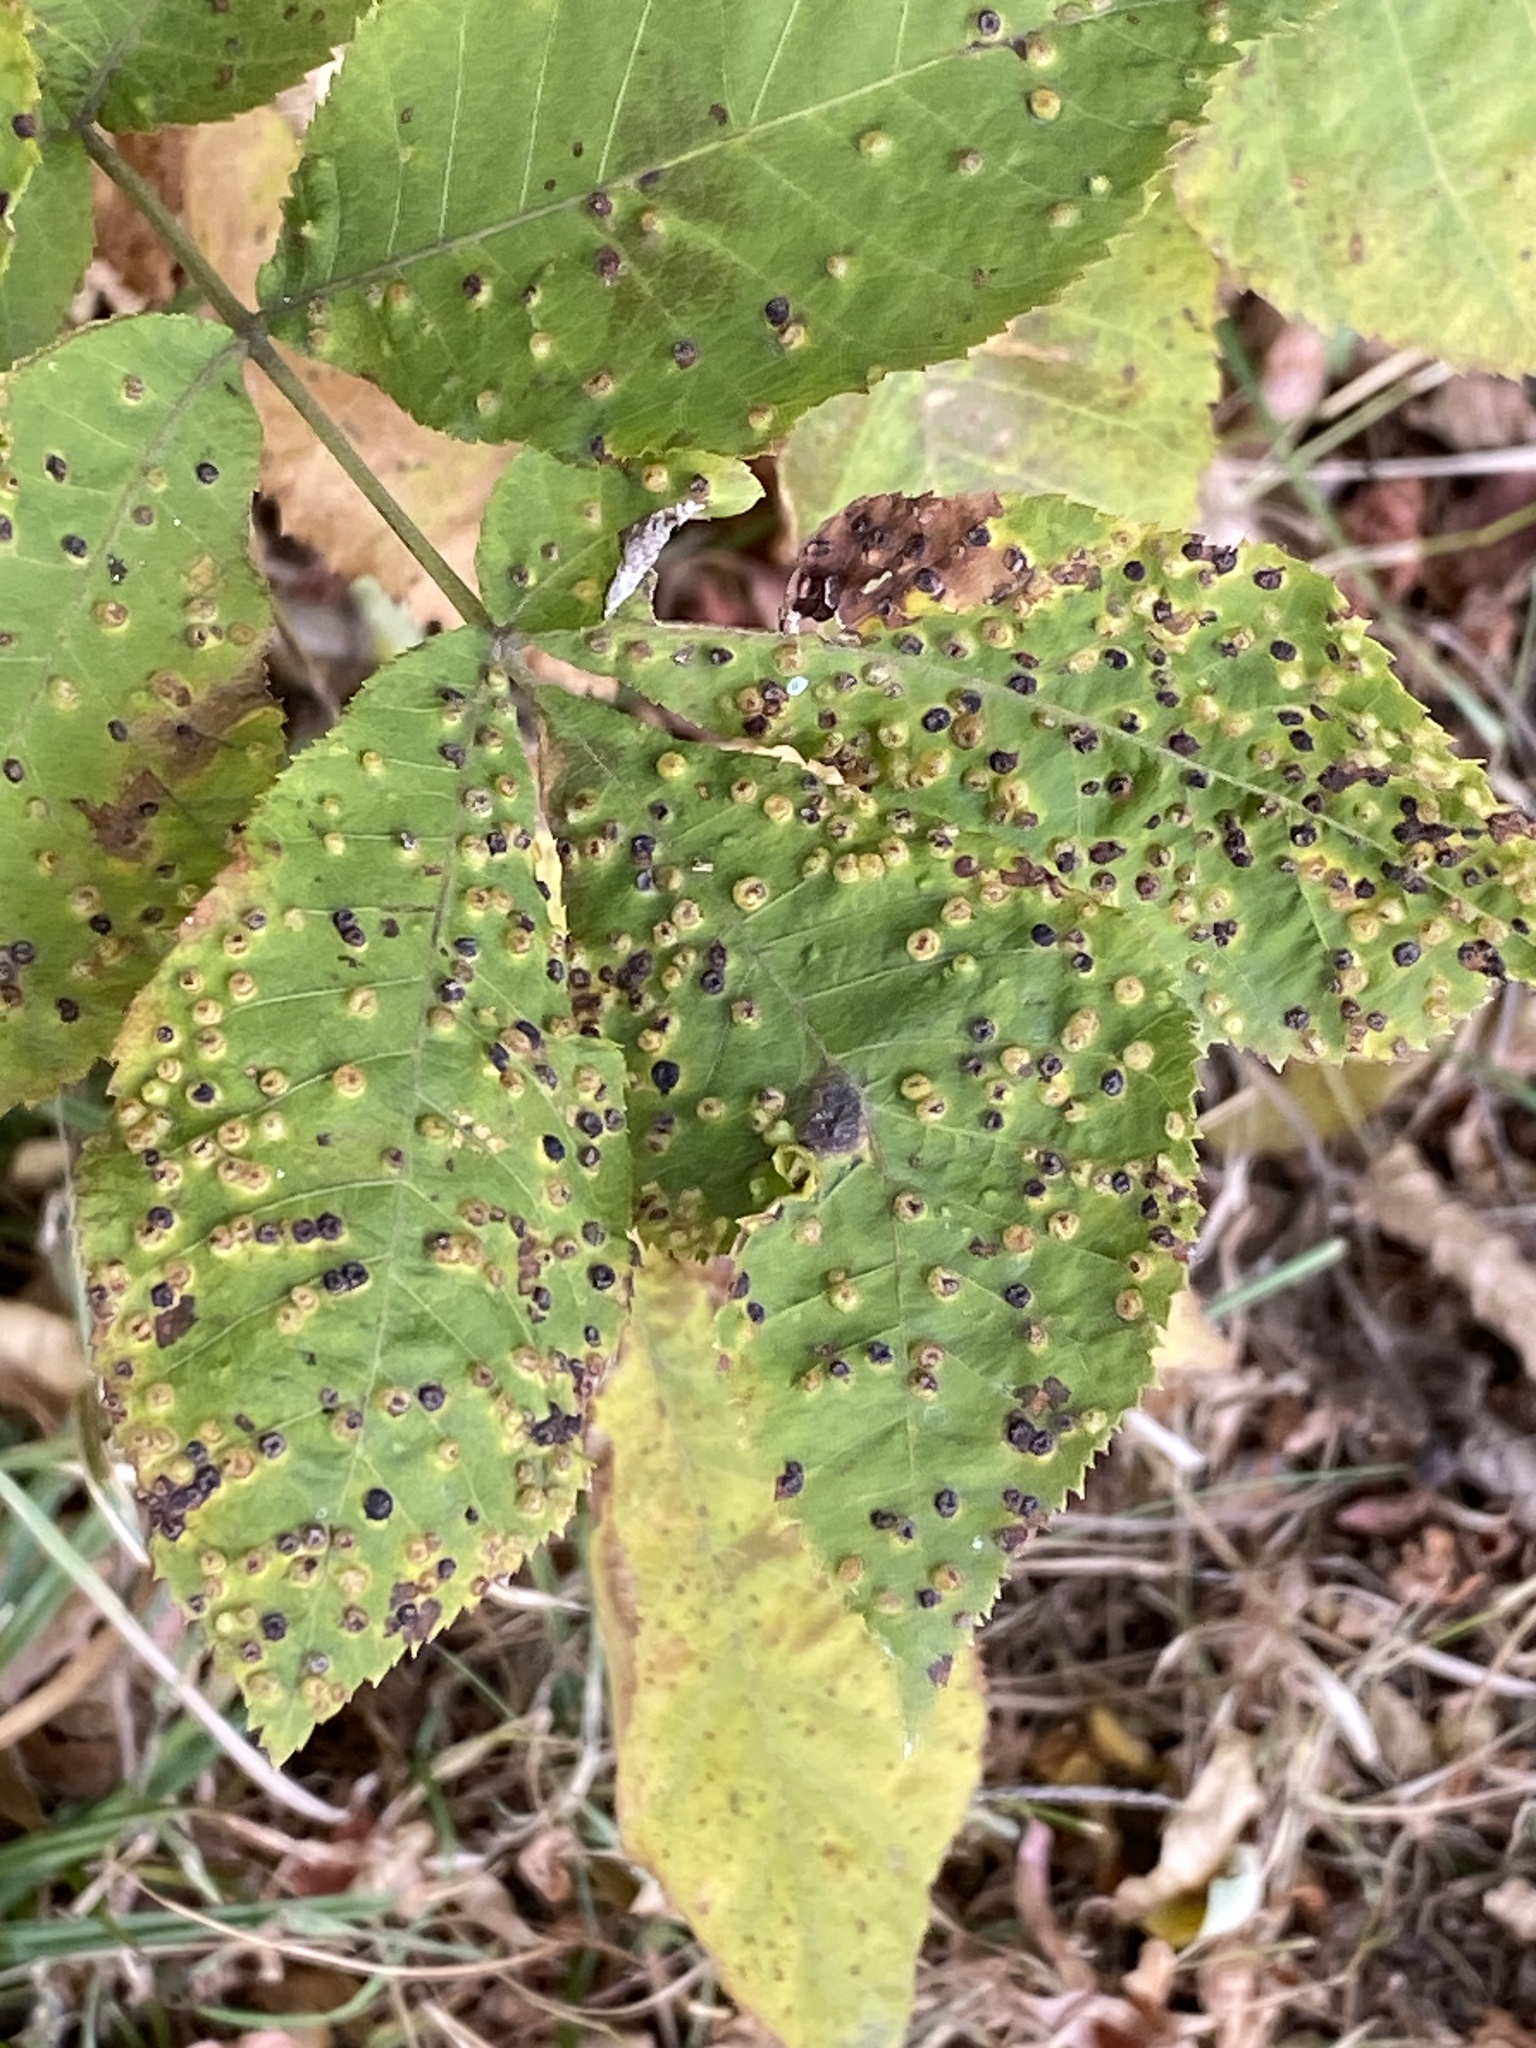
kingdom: Animalia
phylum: Arthropoda
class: Insecta
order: Hemiptera
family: Phylloxeridae
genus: Phylloxera
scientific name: Phylloxera caryae-semen
